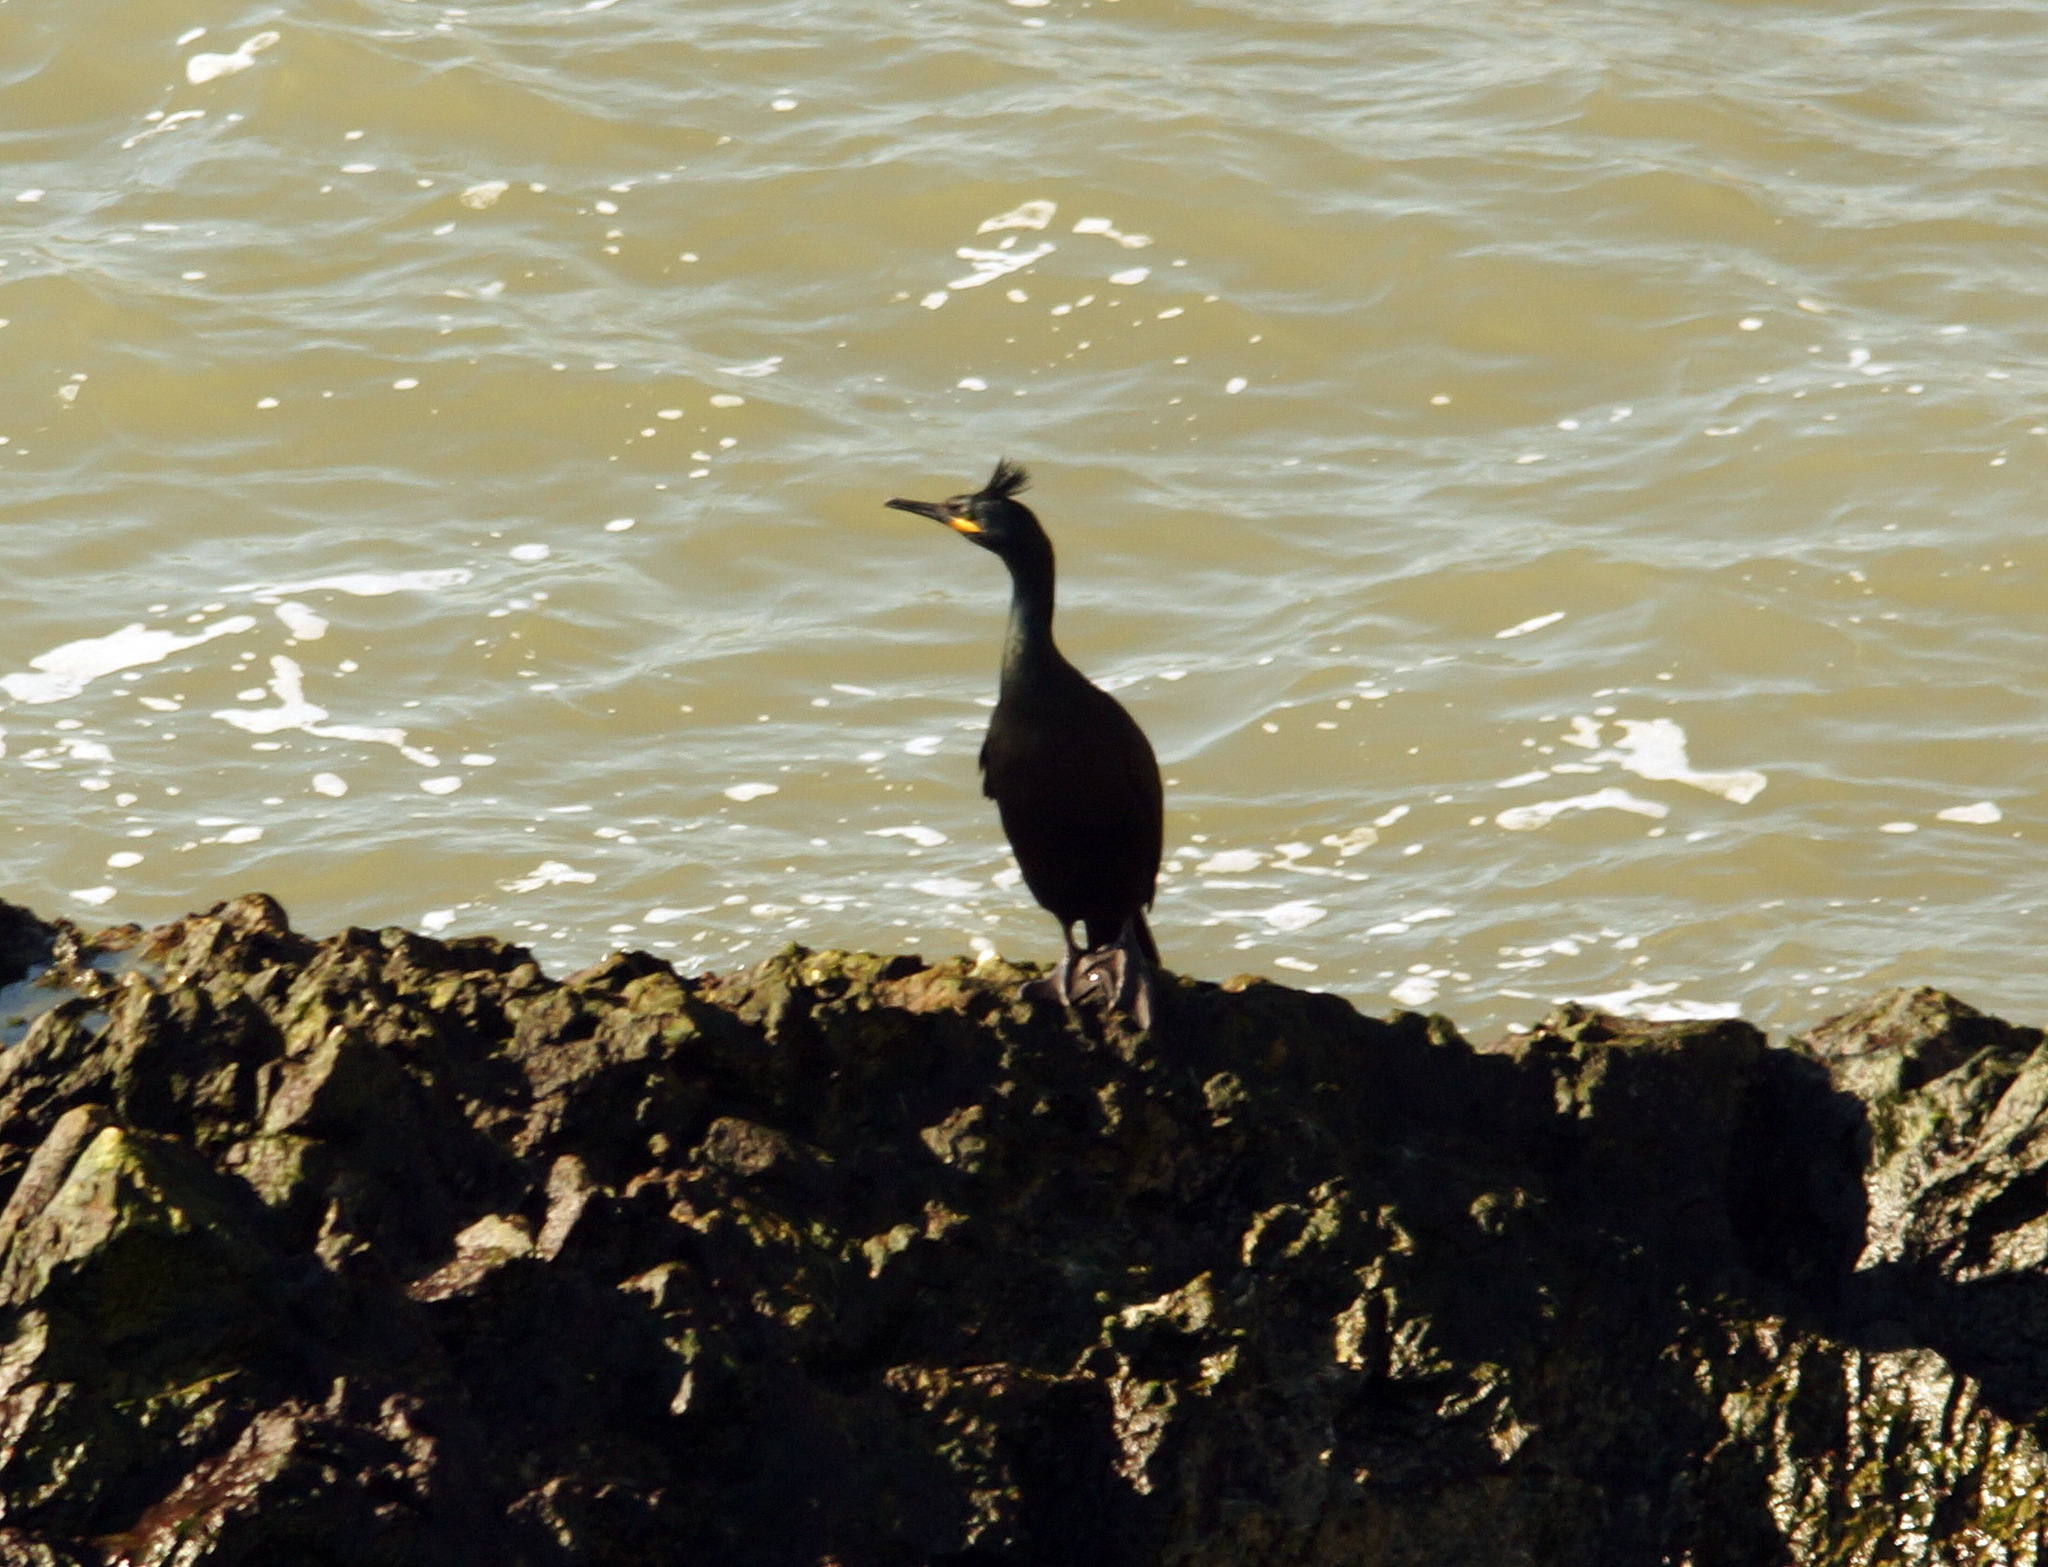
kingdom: Animalia
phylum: Chordata
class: Aves
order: Suliformes
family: Phalacrocoracidae
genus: Phalacrocorax
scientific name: Phalacrocorax aristotelis
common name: European shag
